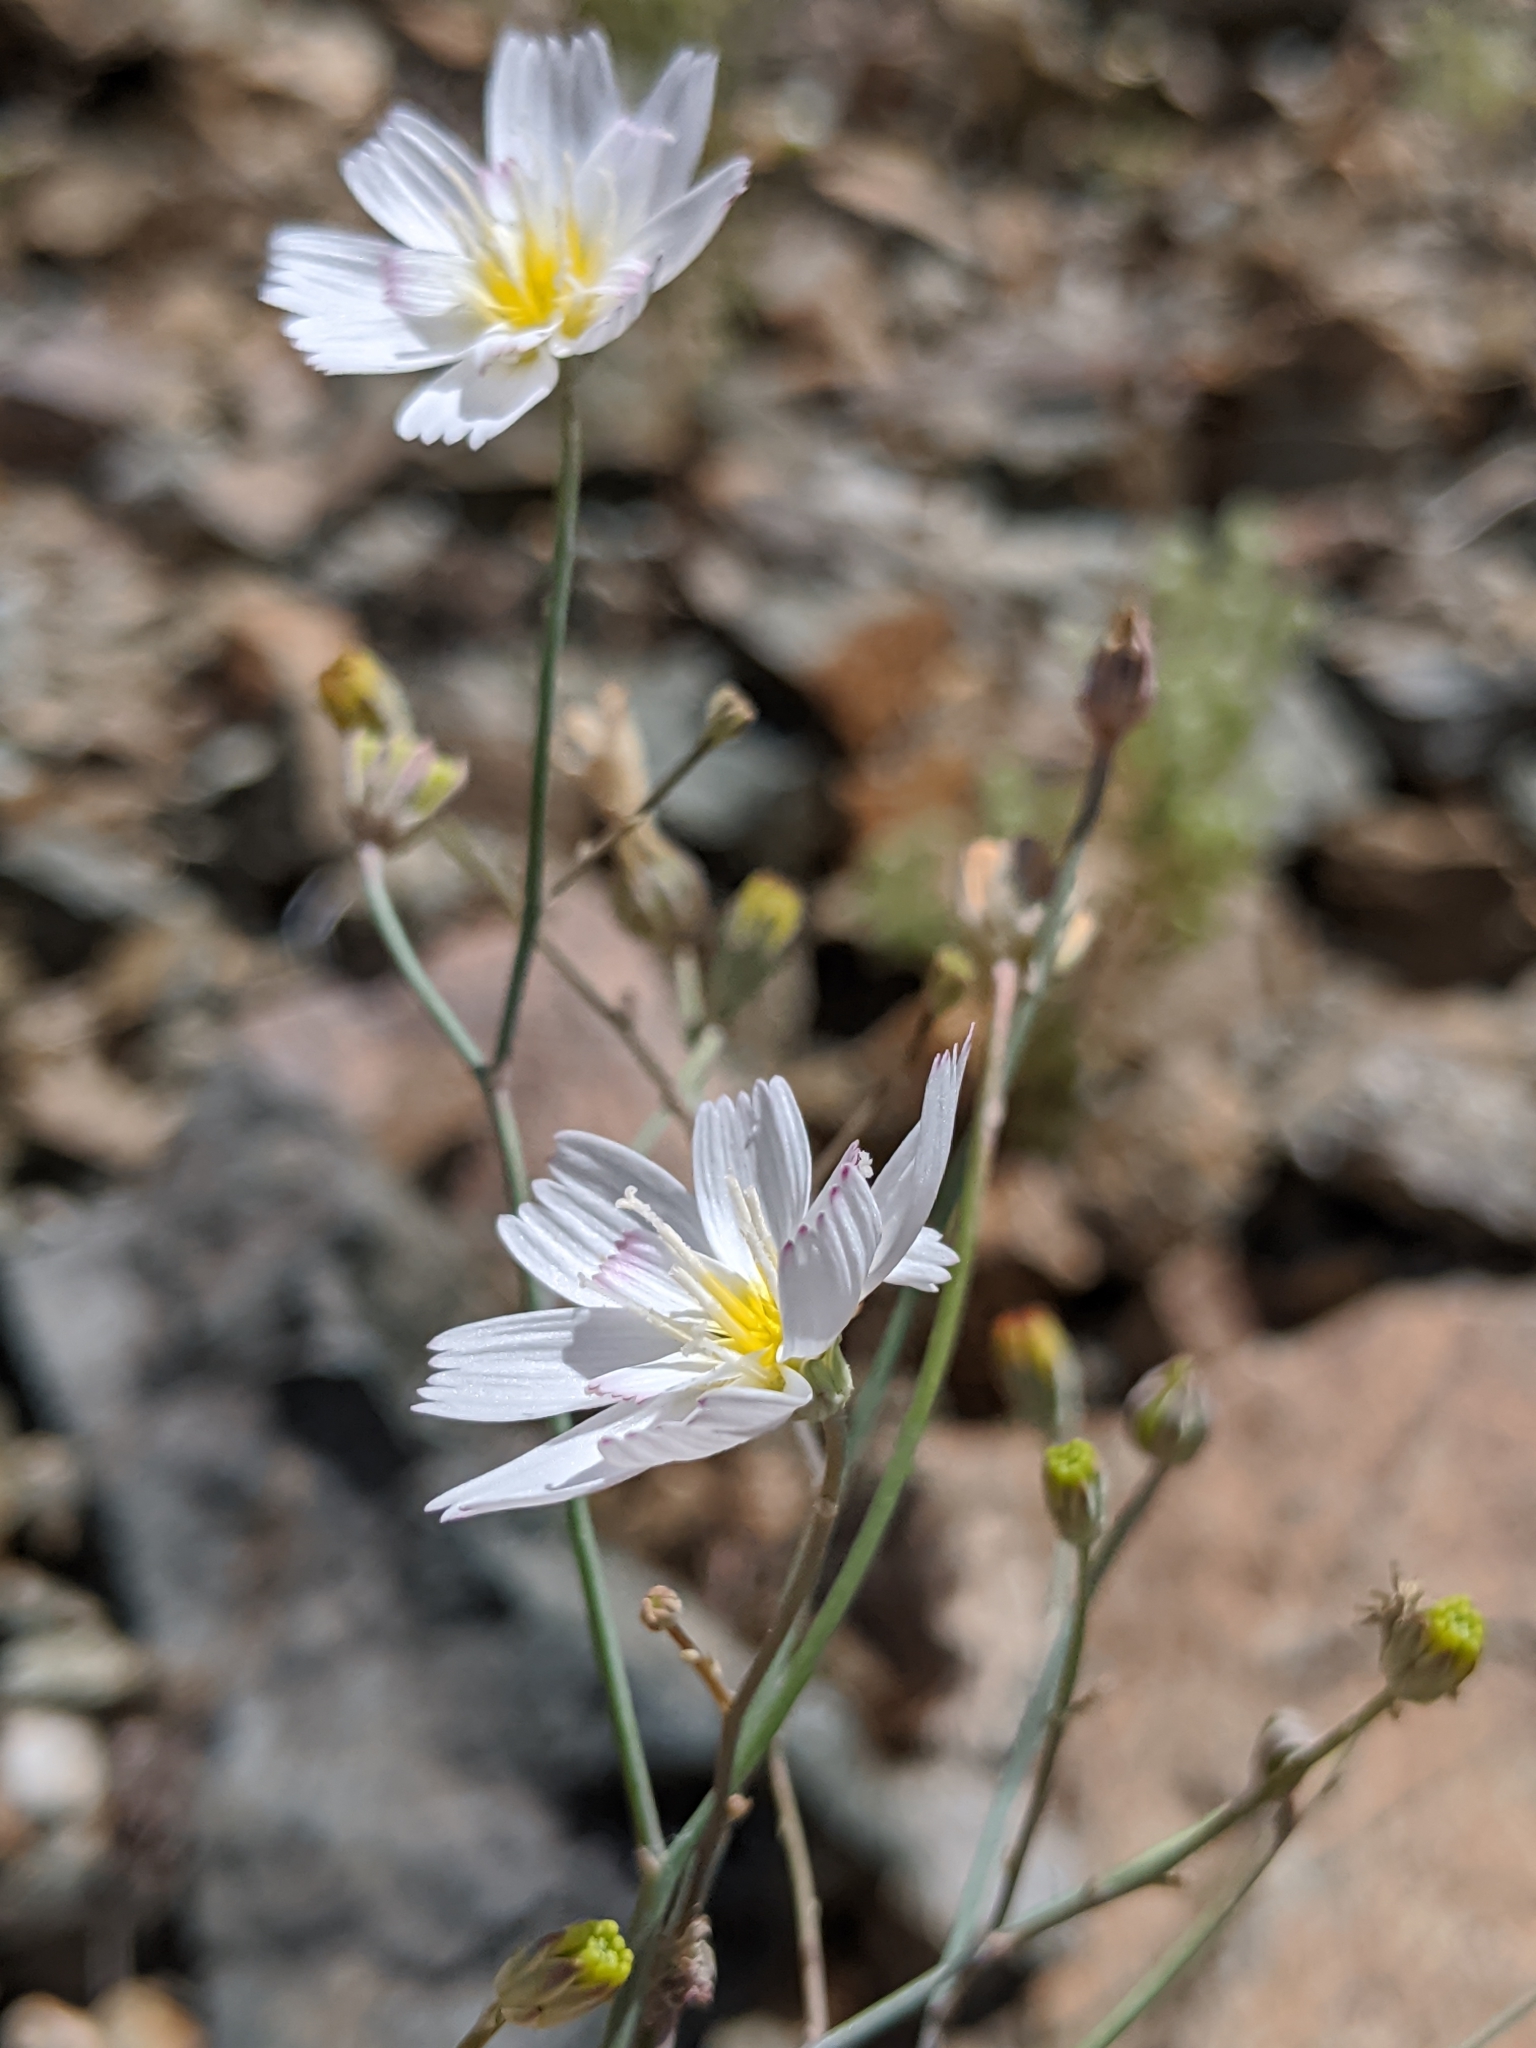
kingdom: Plantae
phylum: Tracheophyta
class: Magnoliopsida
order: Asterales
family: Asteraceae
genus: Atrichoseris
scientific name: Atrichoseris platyphylla
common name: Tobaccoweed
